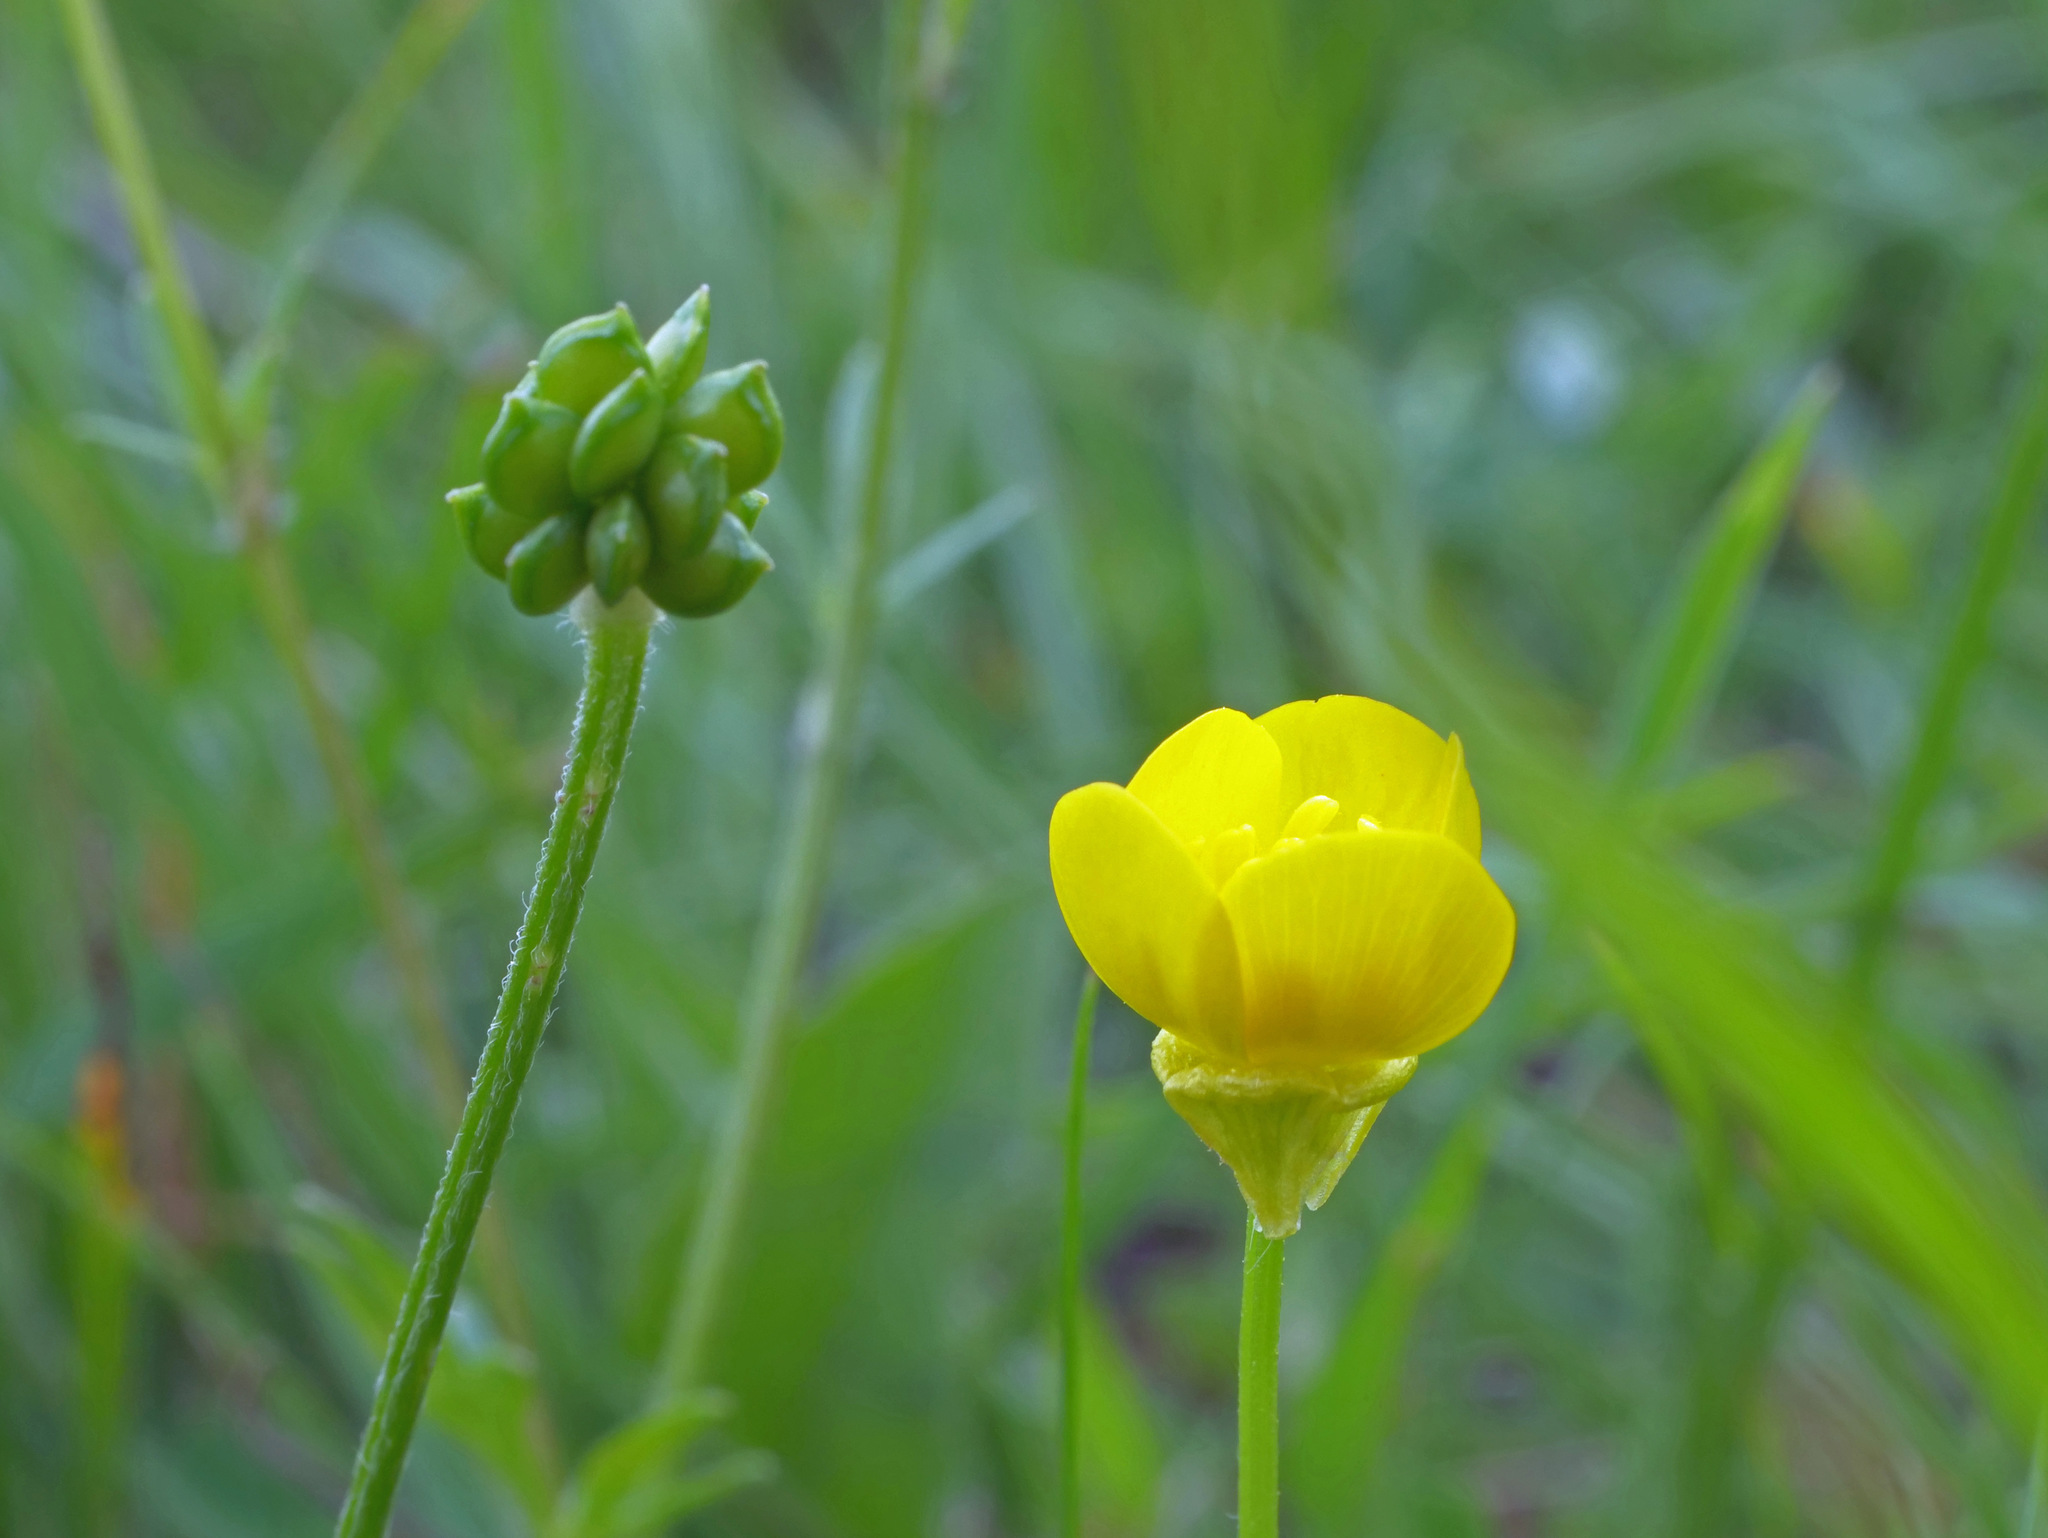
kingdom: Plantae
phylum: Tracheophyta
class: Magnoliopsida
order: Ranunculales
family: Ranunculaceae
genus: Ranunculus
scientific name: Ranunculus bulbosus
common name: Bulbous buttercup
